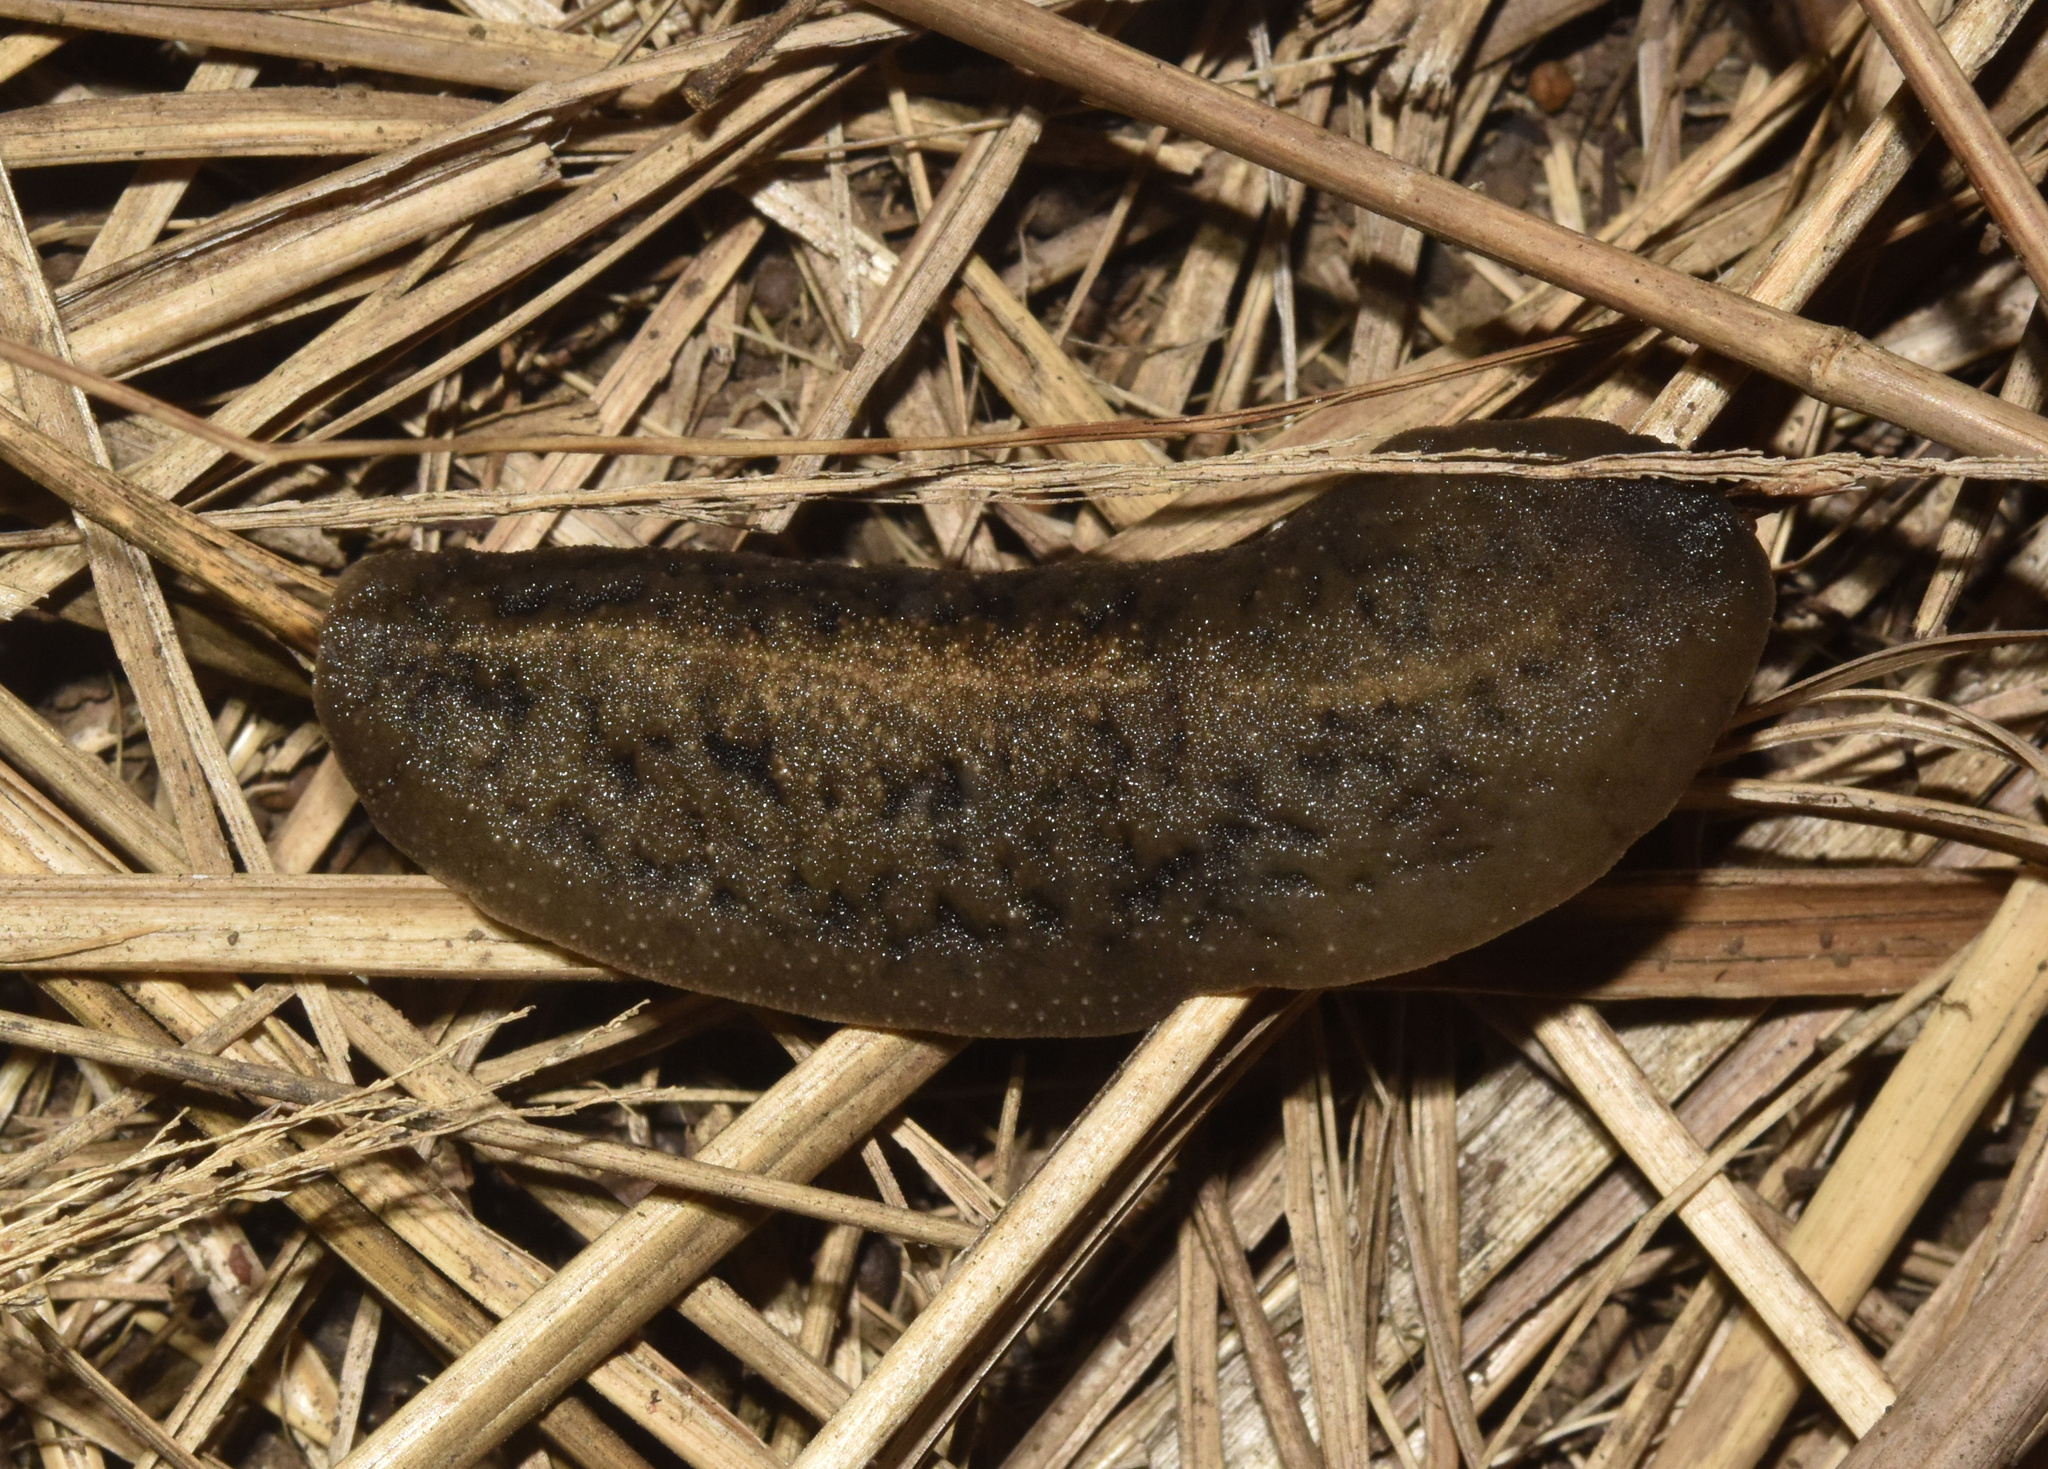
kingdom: Animalia
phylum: Mollusca
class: Gastropoda
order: Systellommatophora
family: Veronicellidae
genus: Laevicaulis
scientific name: Laevicaulis natalensis
